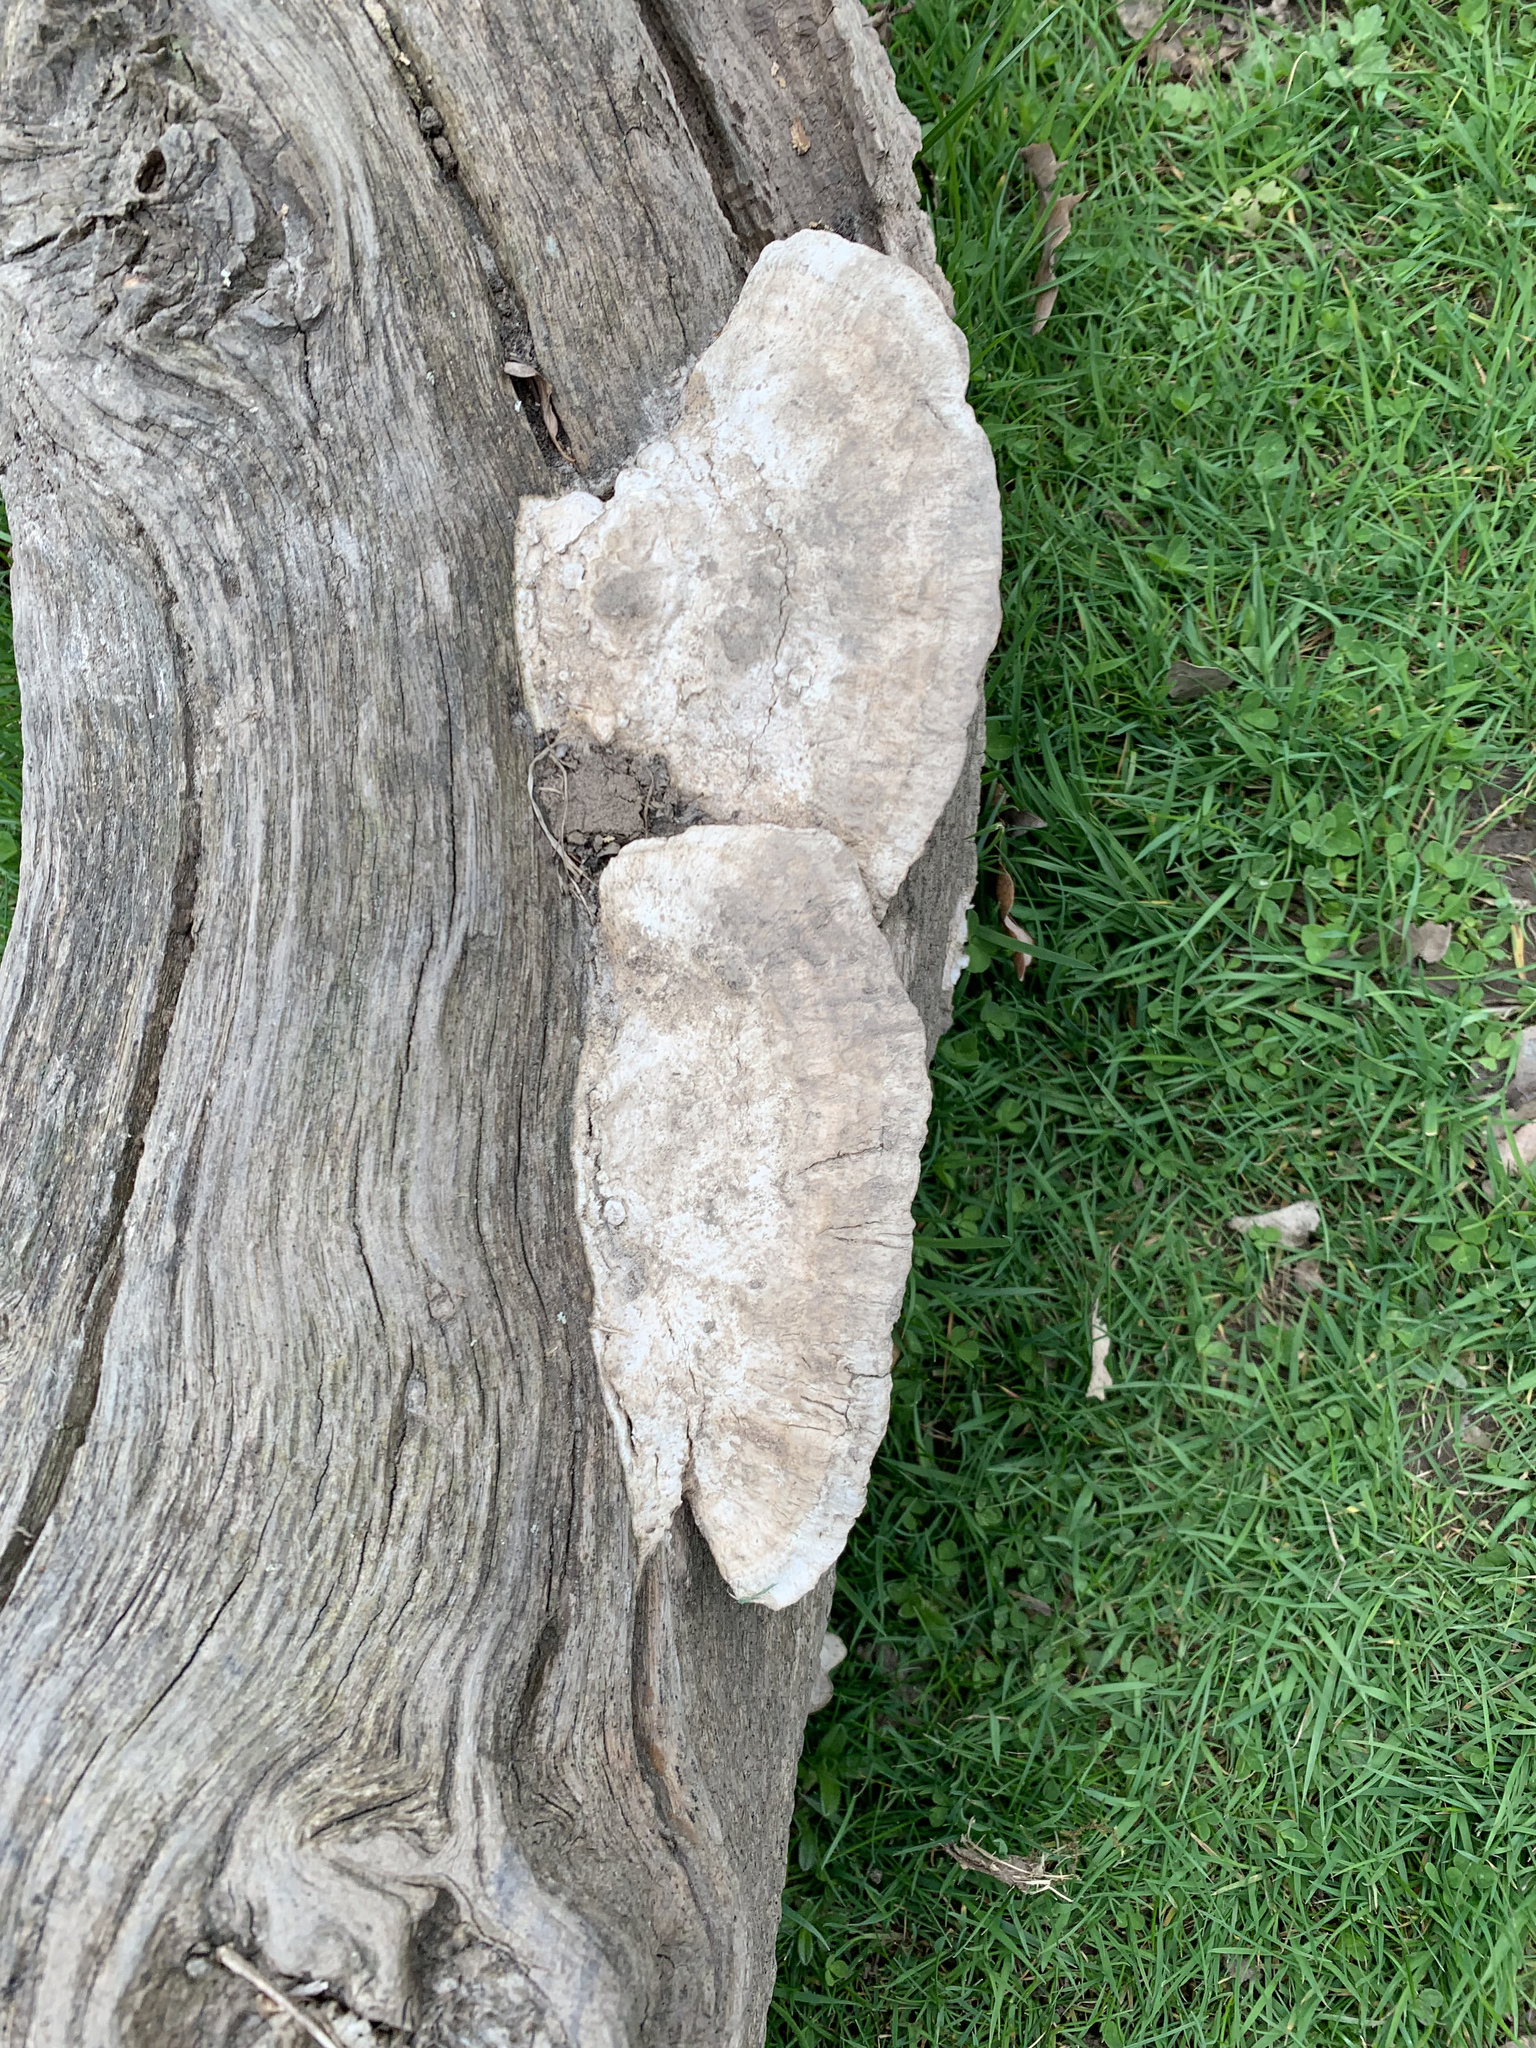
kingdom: Fungi
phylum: Basidiomycota
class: Agaricomycetes
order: Polyporales
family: Fomitopsidaceae
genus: Fomitopsis
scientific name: Fomitopsis
